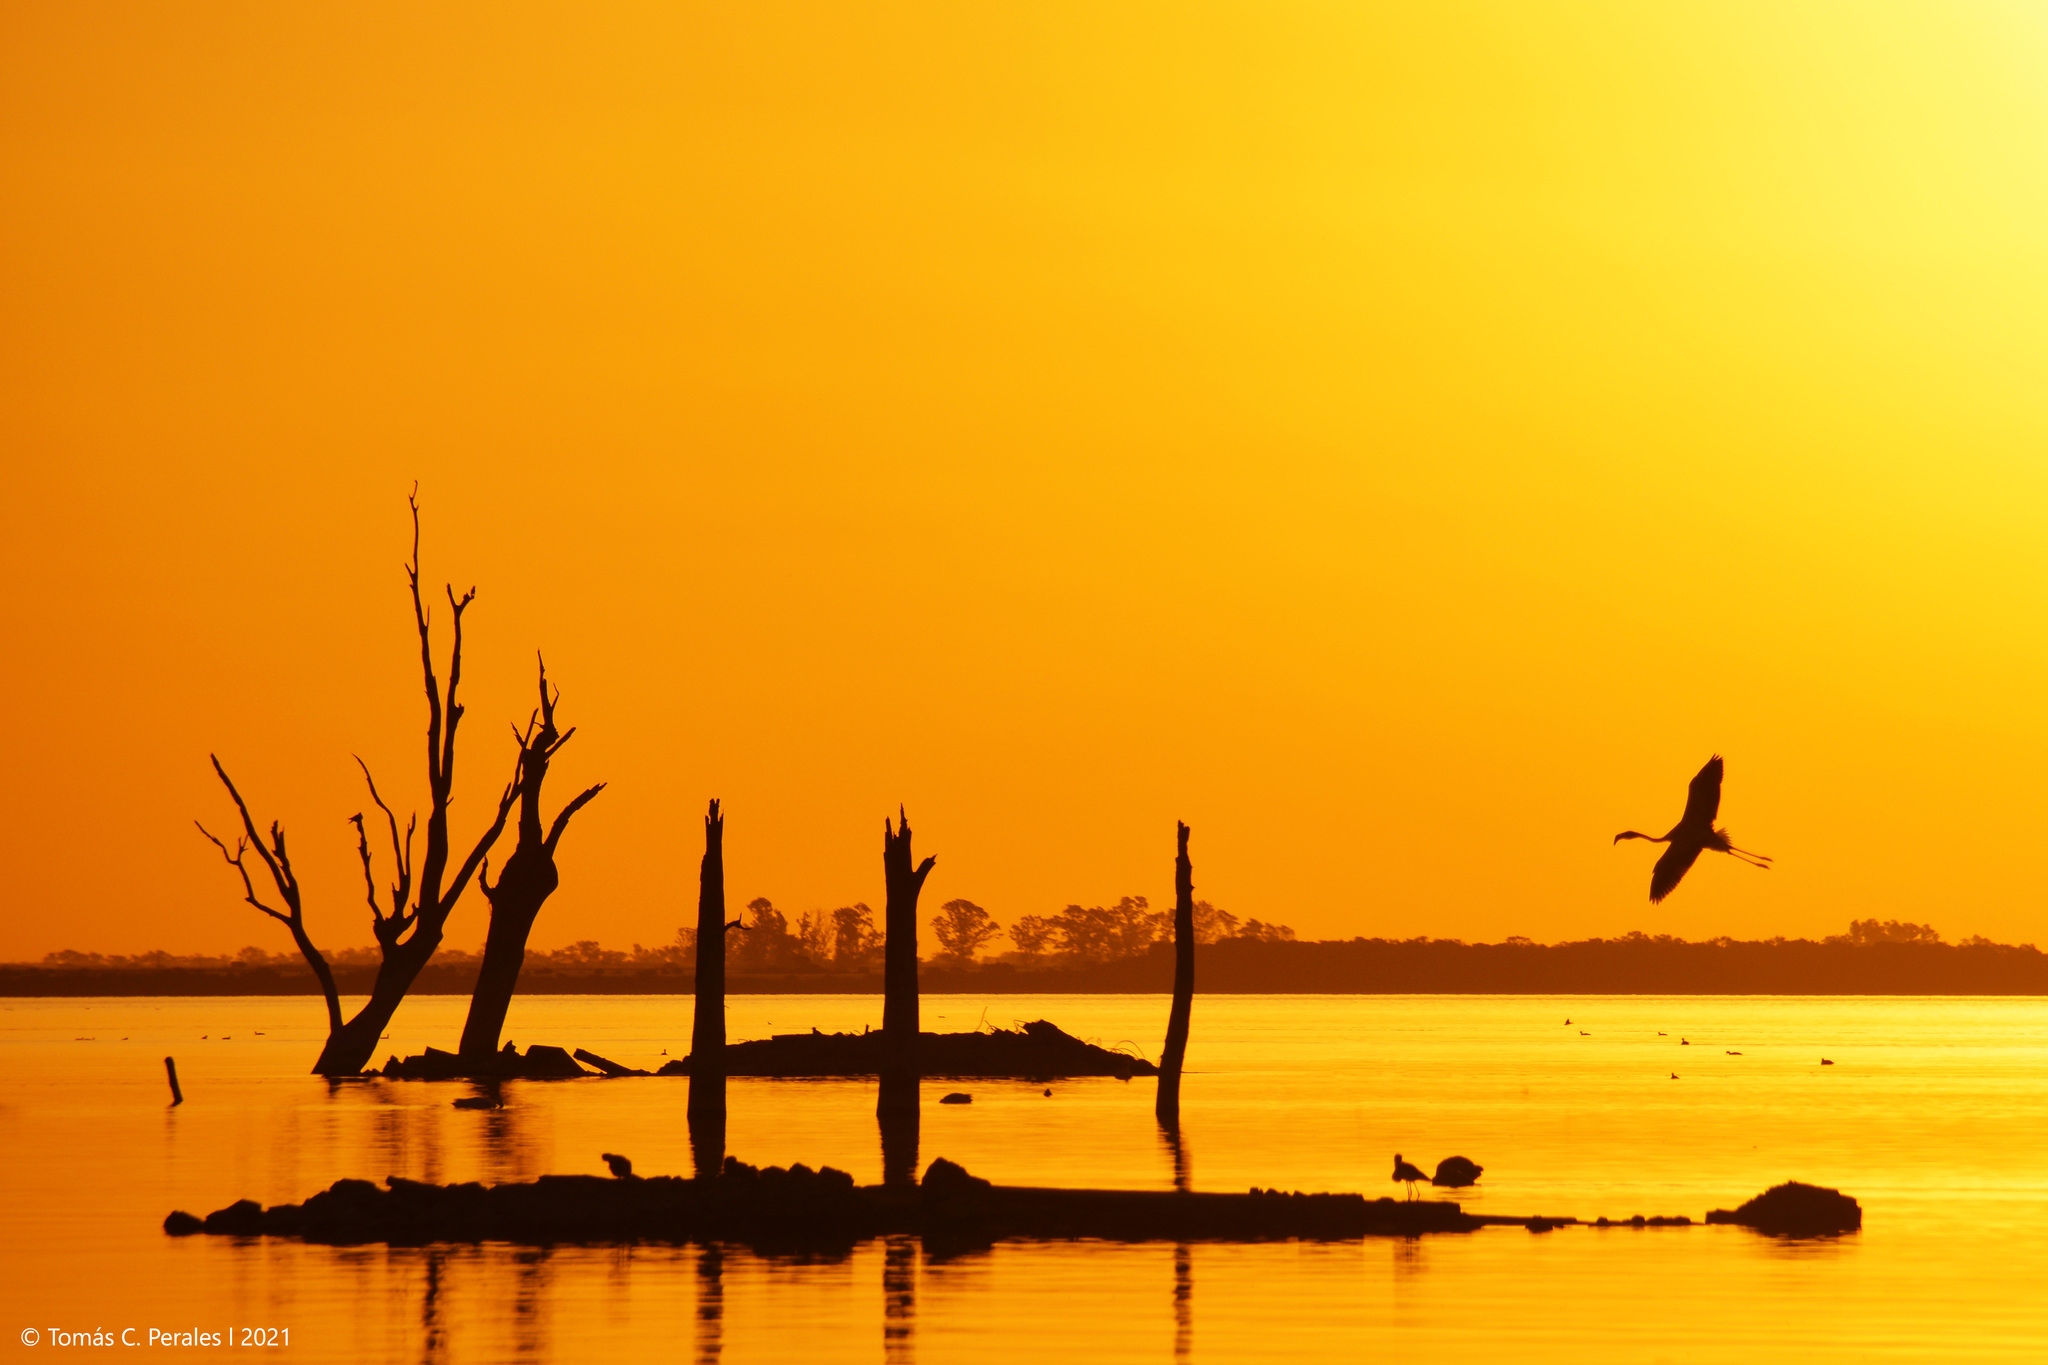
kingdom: Animalia
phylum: Chordata
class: Aves
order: Phoenicopteriformes
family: Phoenicopteridae
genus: Phoenicopterus
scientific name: Phoenicopterus chilensis
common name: Chilean flamingo
